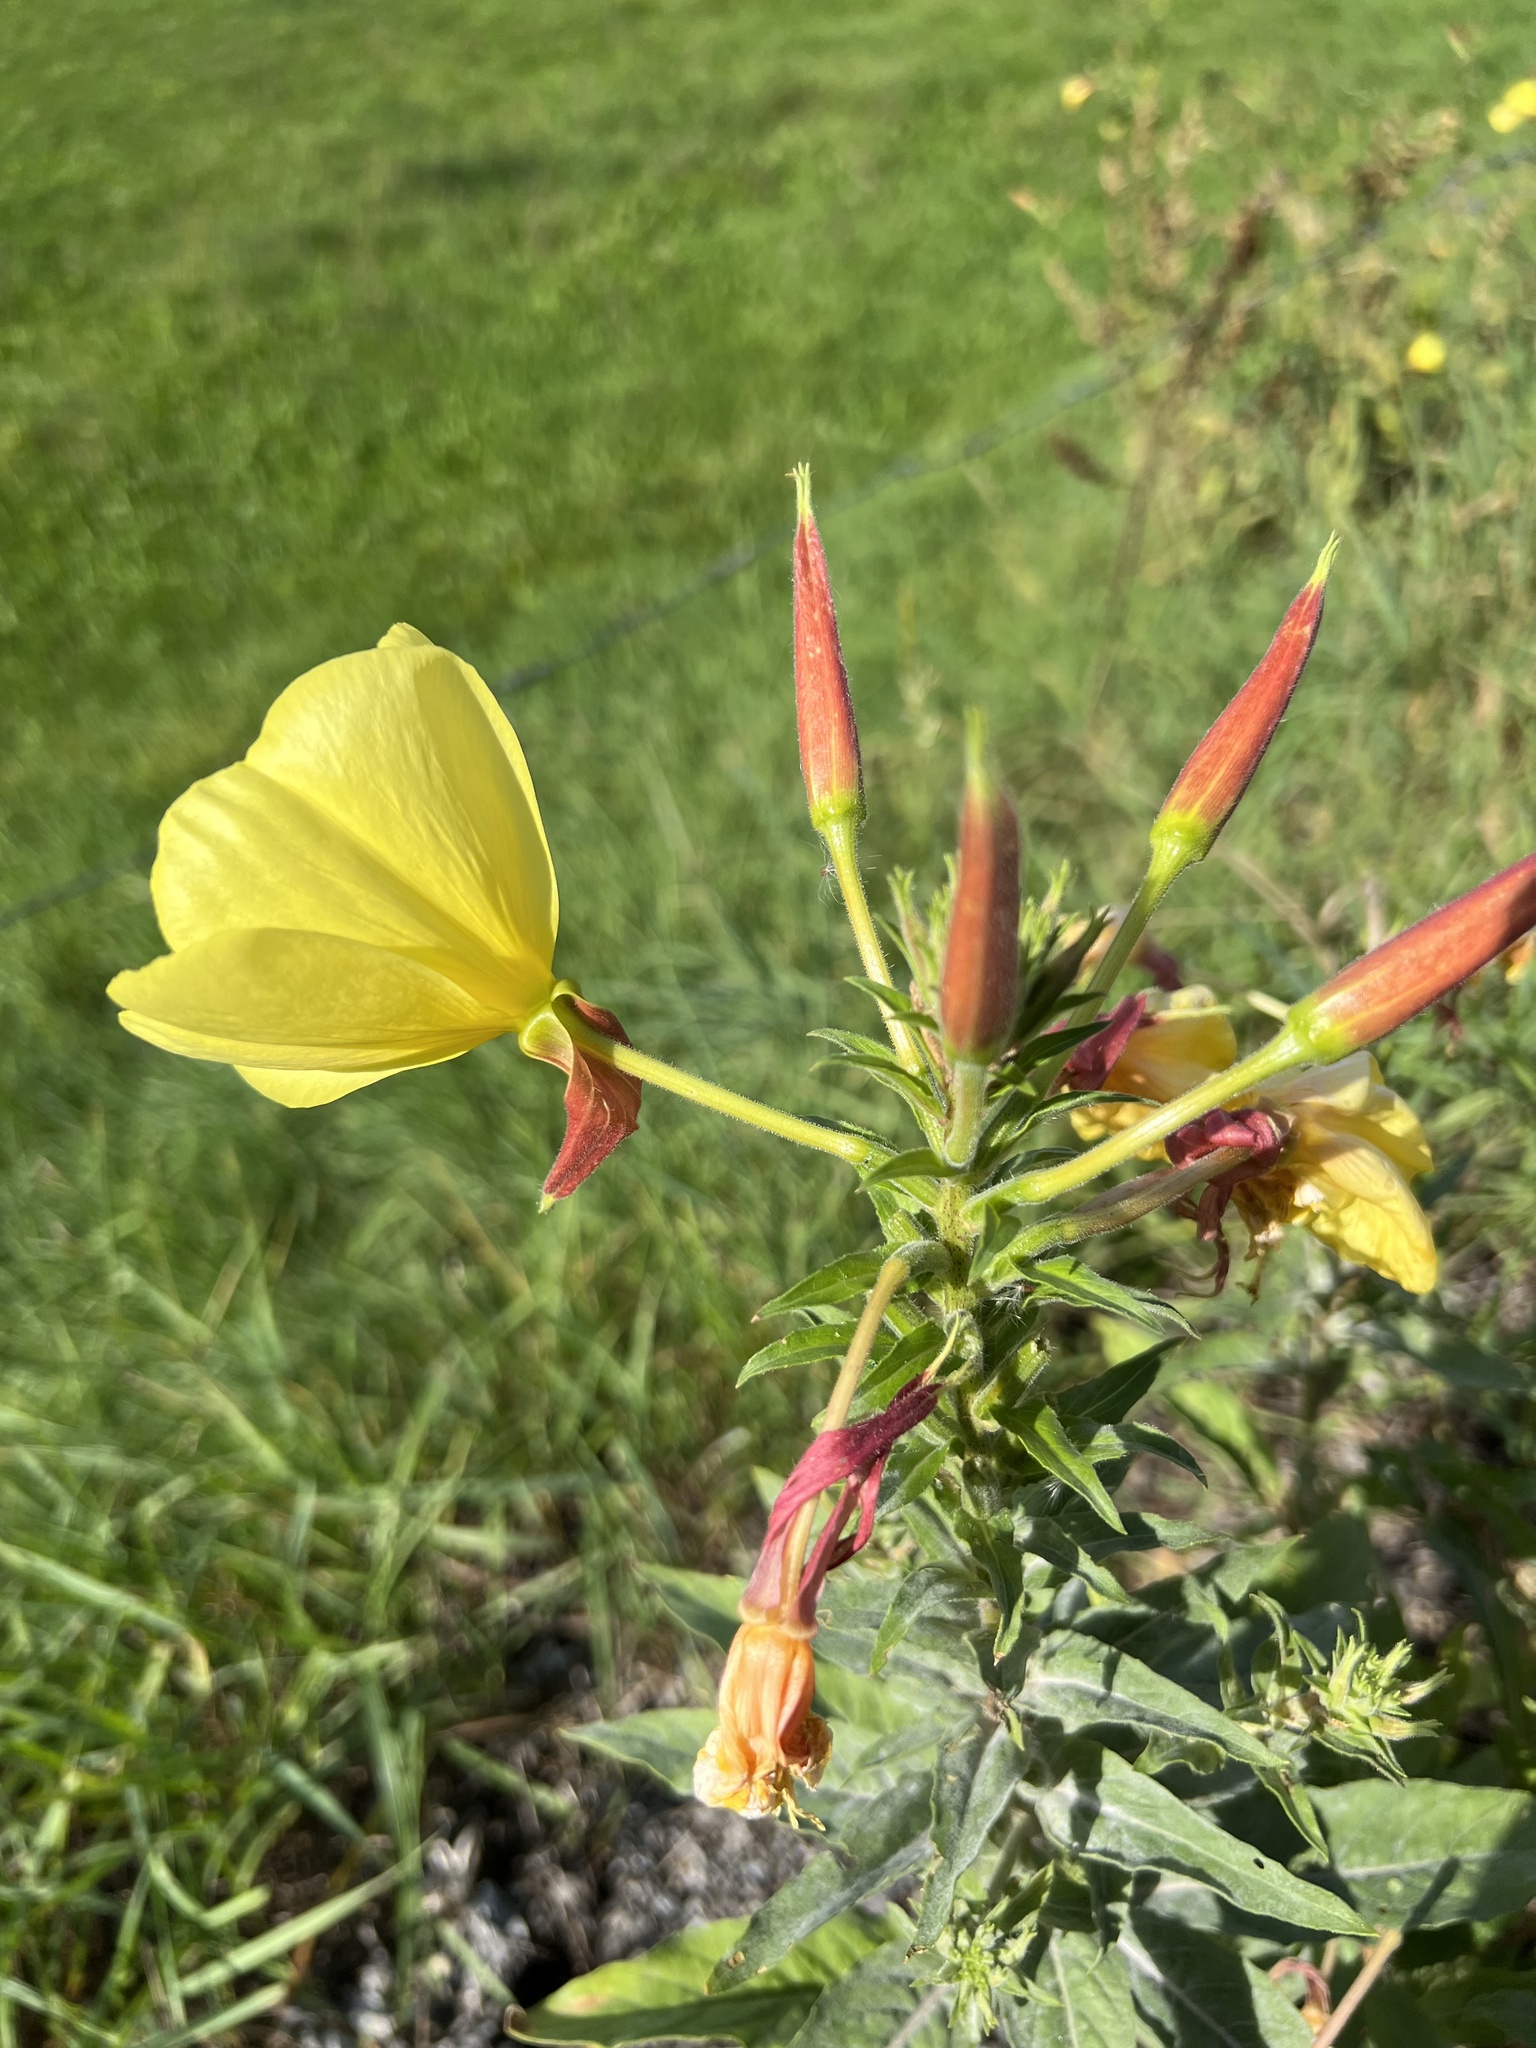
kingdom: Plantae
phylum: Tracheophyta
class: Magnoliopsida
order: Myrtales
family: Onagraceae
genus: Oenothera
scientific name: Oenothera glazioviana
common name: Large-flowered evening-primrose
